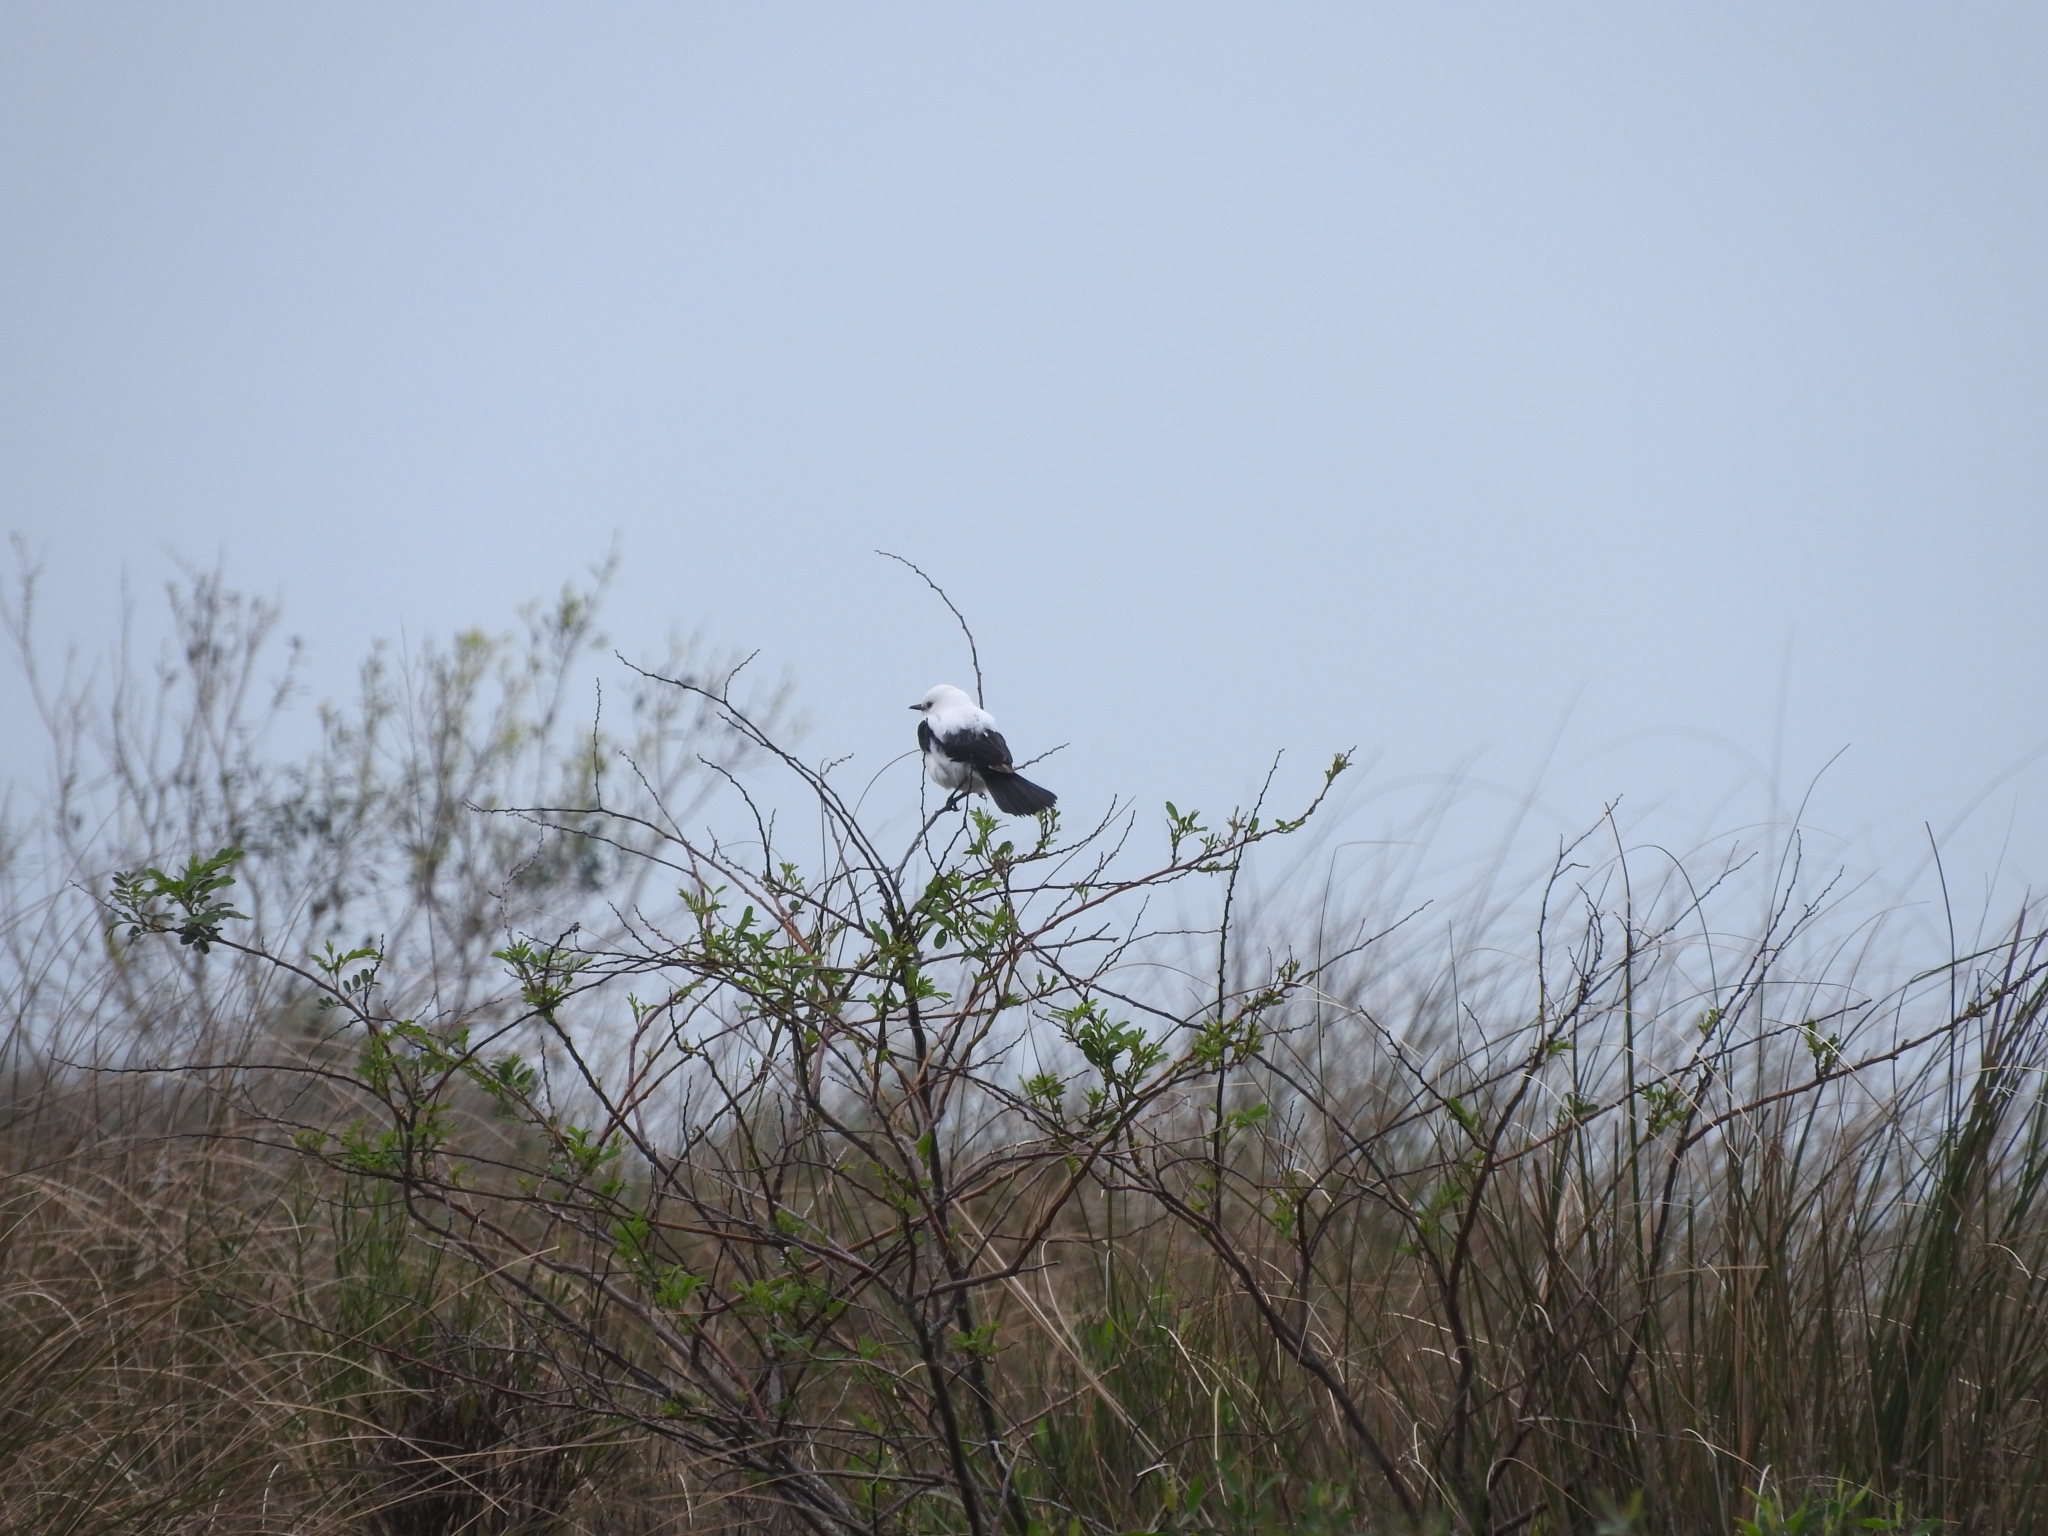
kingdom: Animalia
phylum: Chordata
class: Aves
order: Passeriformes
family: Tyrannidae
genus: Heteroxolmis
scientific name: Heteroxolmis dominicana
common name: Black-and-white monjita
